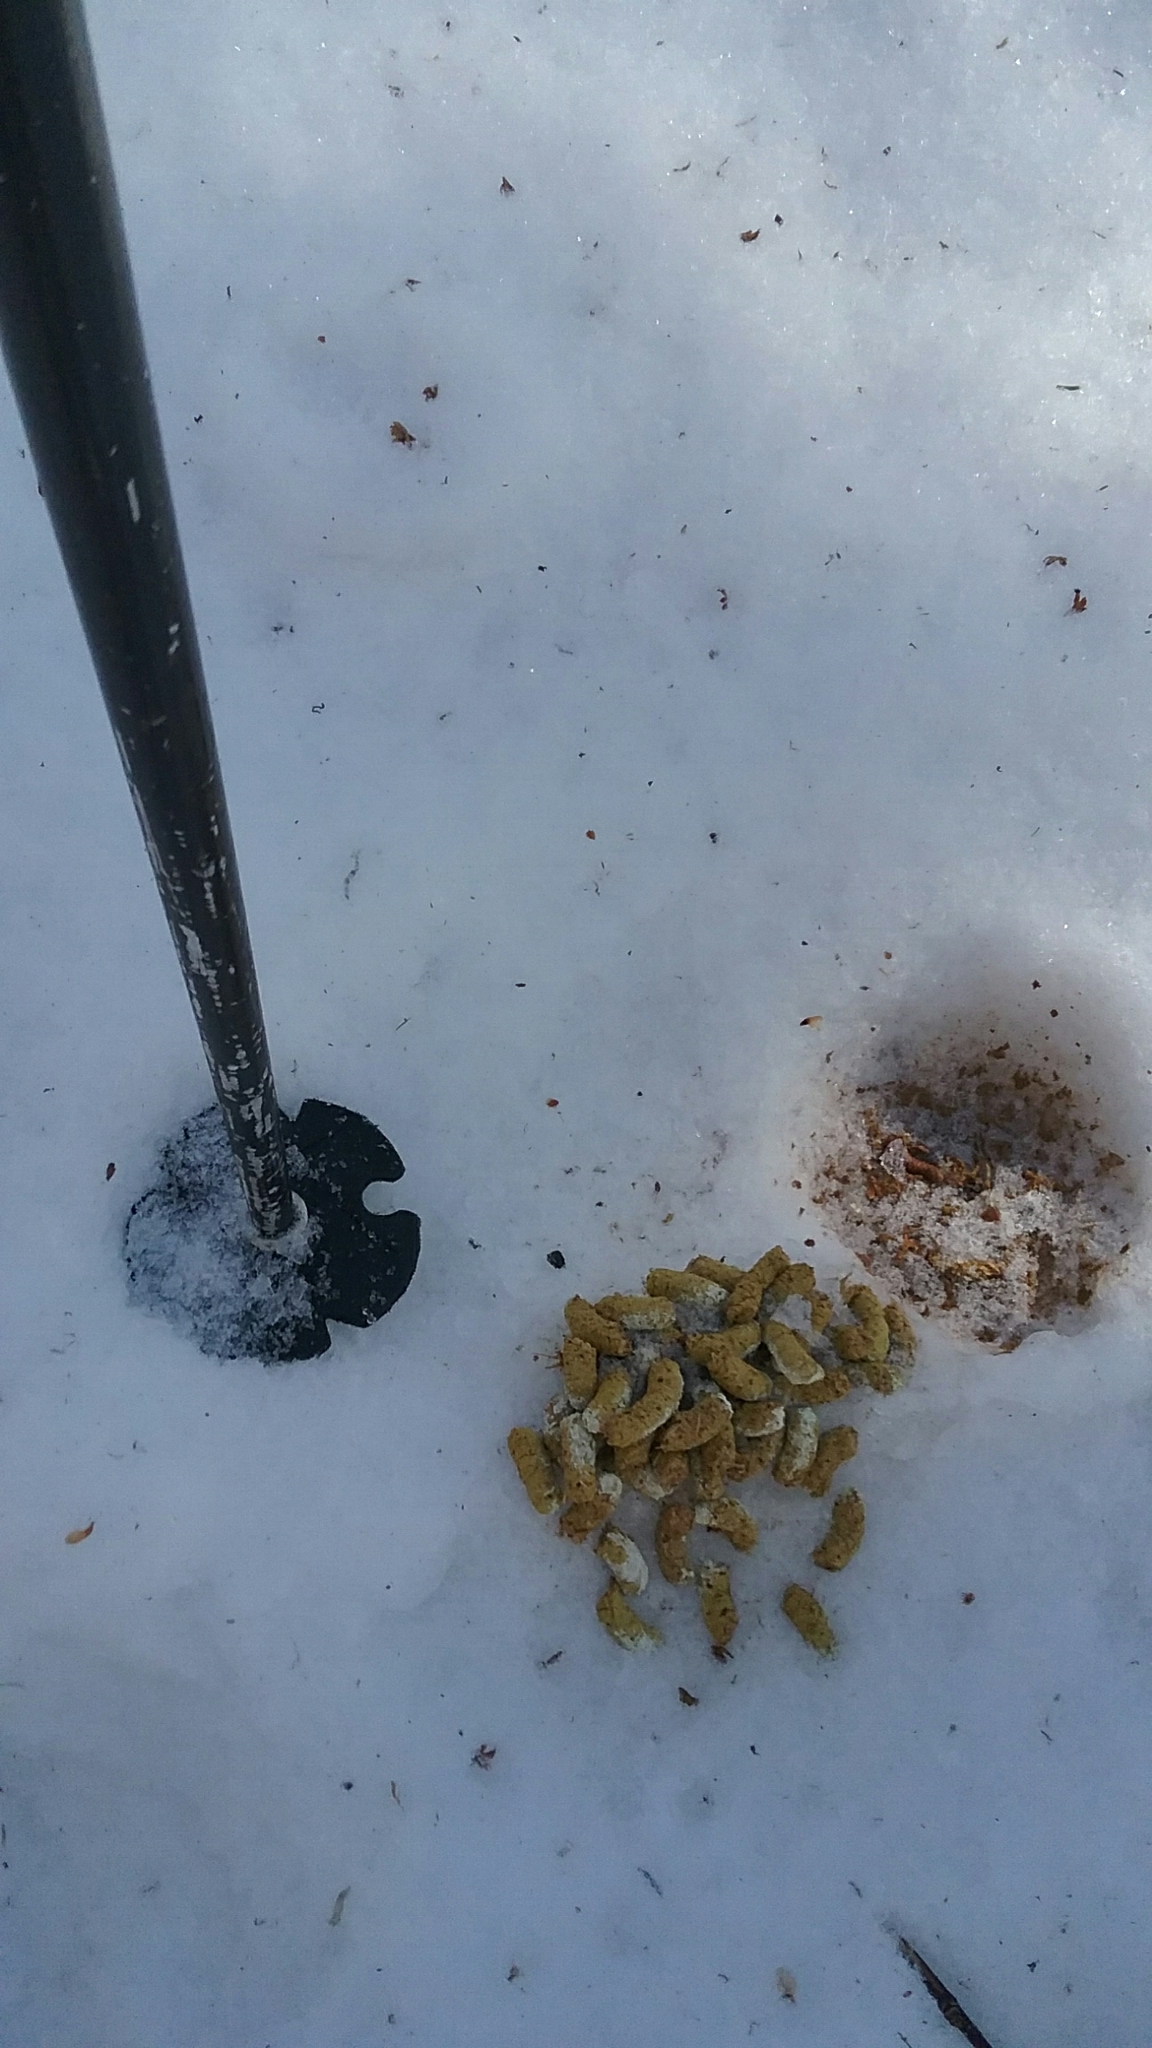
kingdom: Animalia
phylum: Chordata
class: Aves
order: Galliformes
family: Phasianidae
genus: Bonasa
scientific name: Bonasa umbellus
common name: Ruffed grouse
